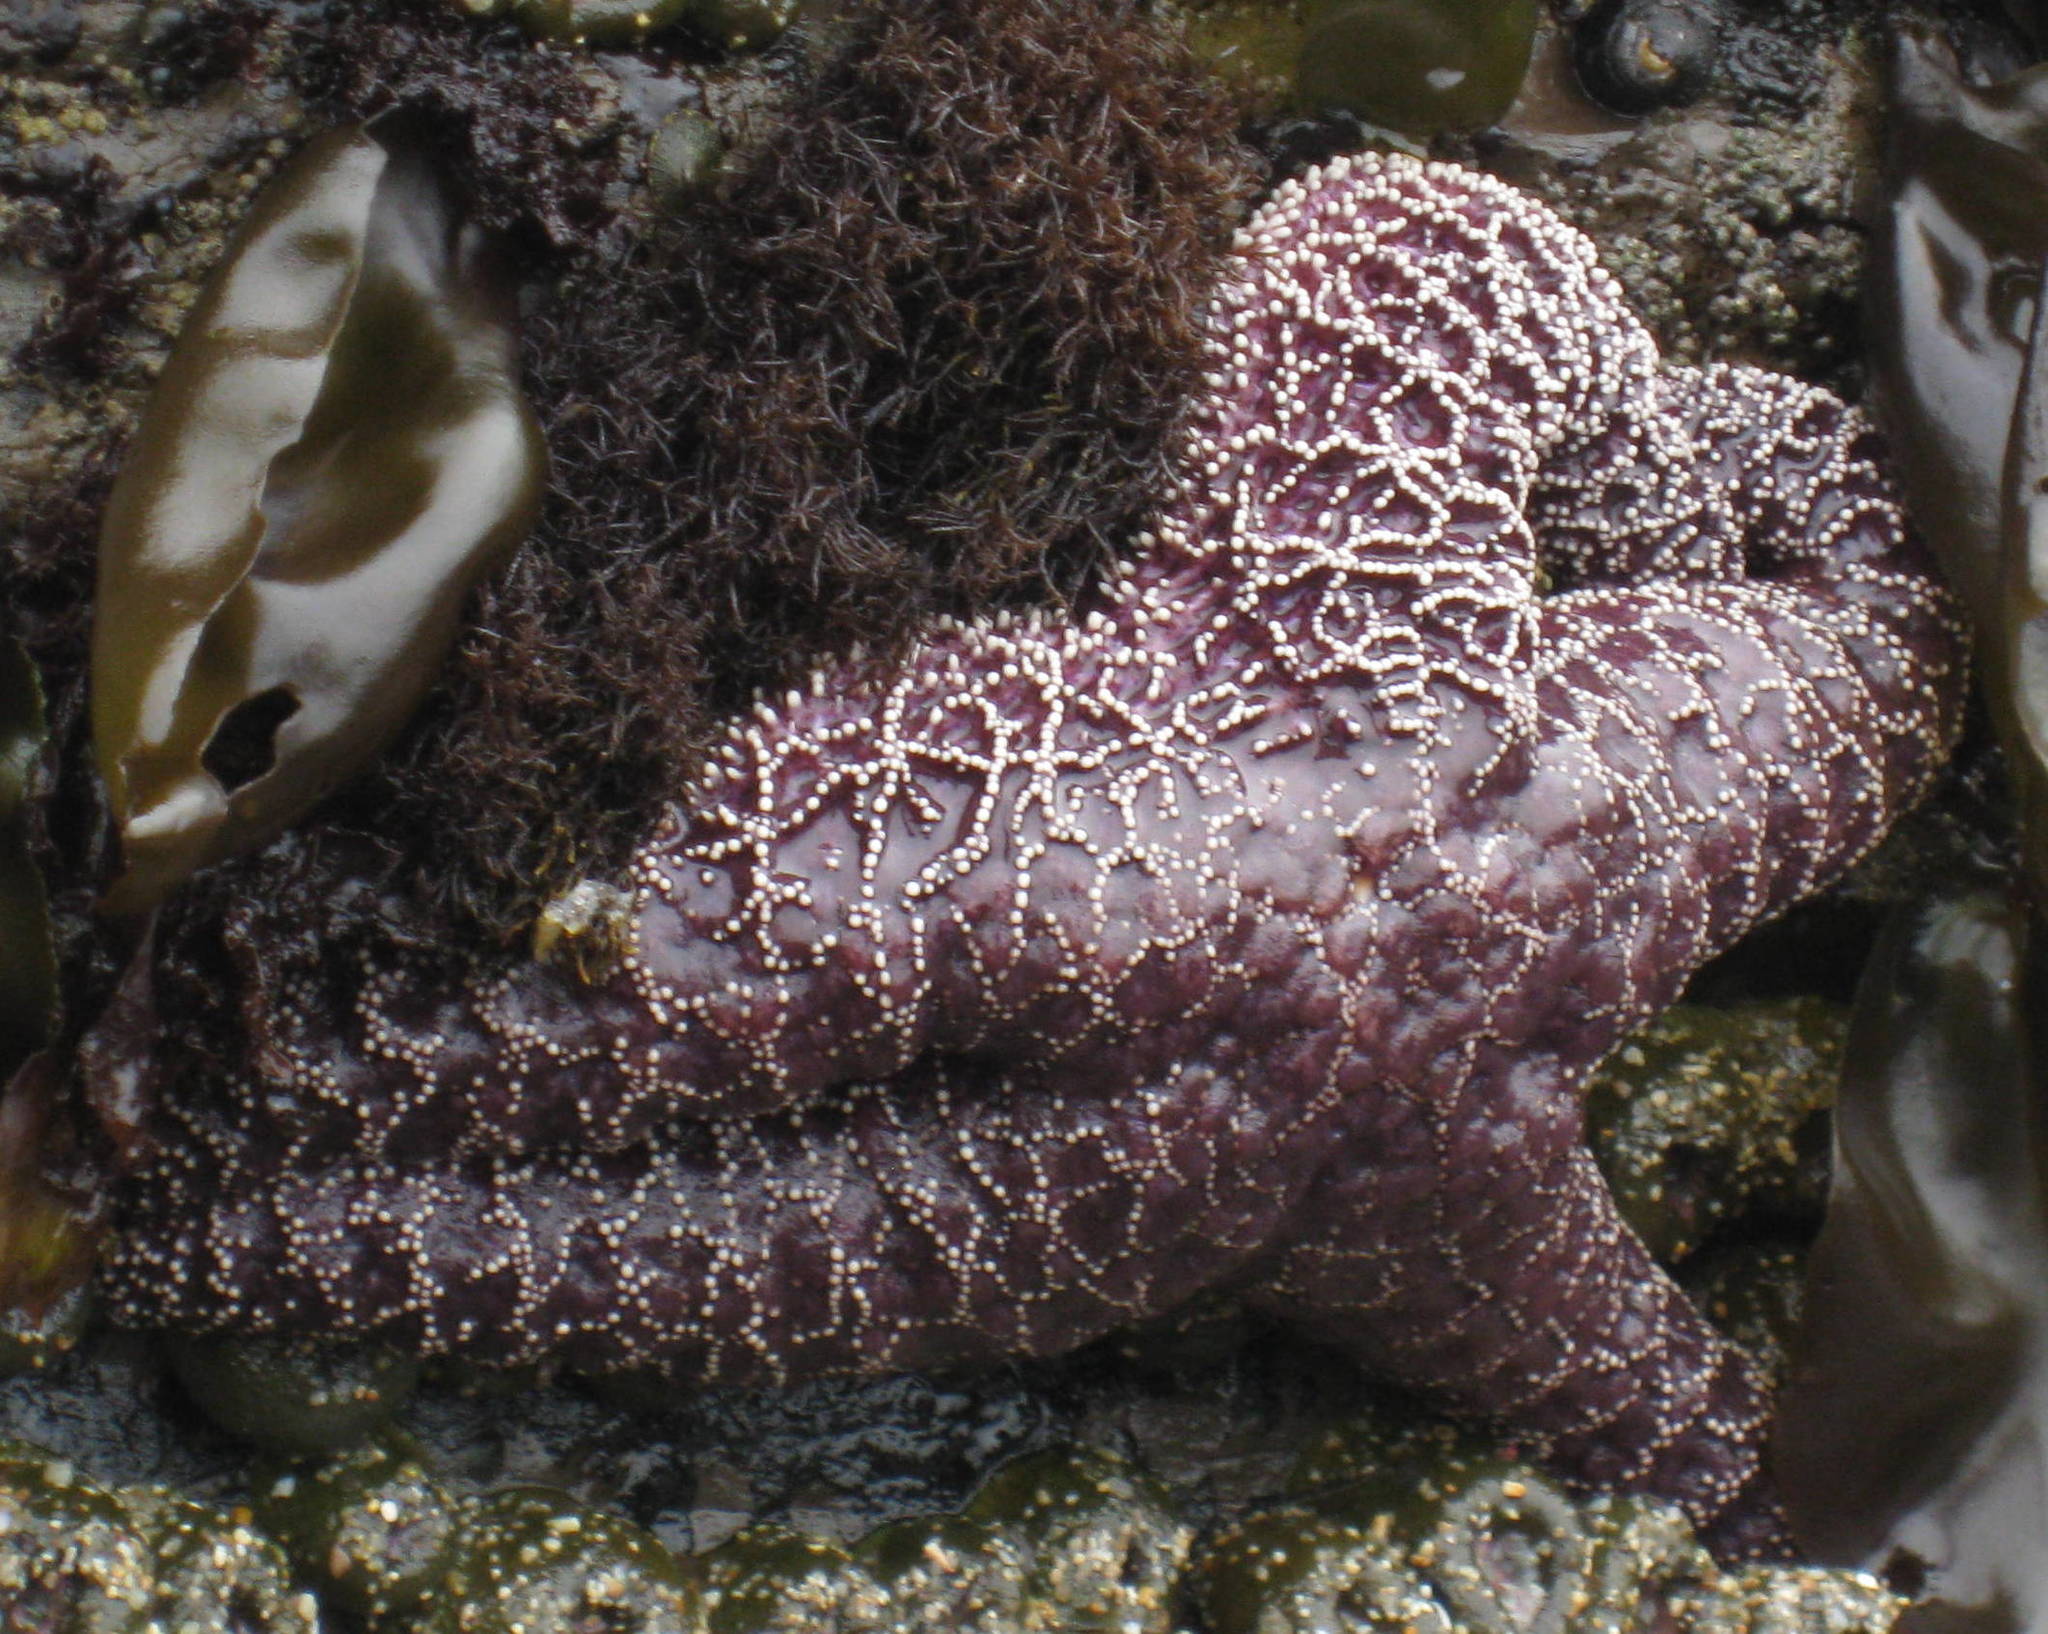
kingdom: Animalia
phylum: Echinodermata
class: Asteroidea
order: Forcipulatida
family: Asteriidae
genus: Pisaster
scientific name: Pisaster ochraceus
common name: Ochre stars
